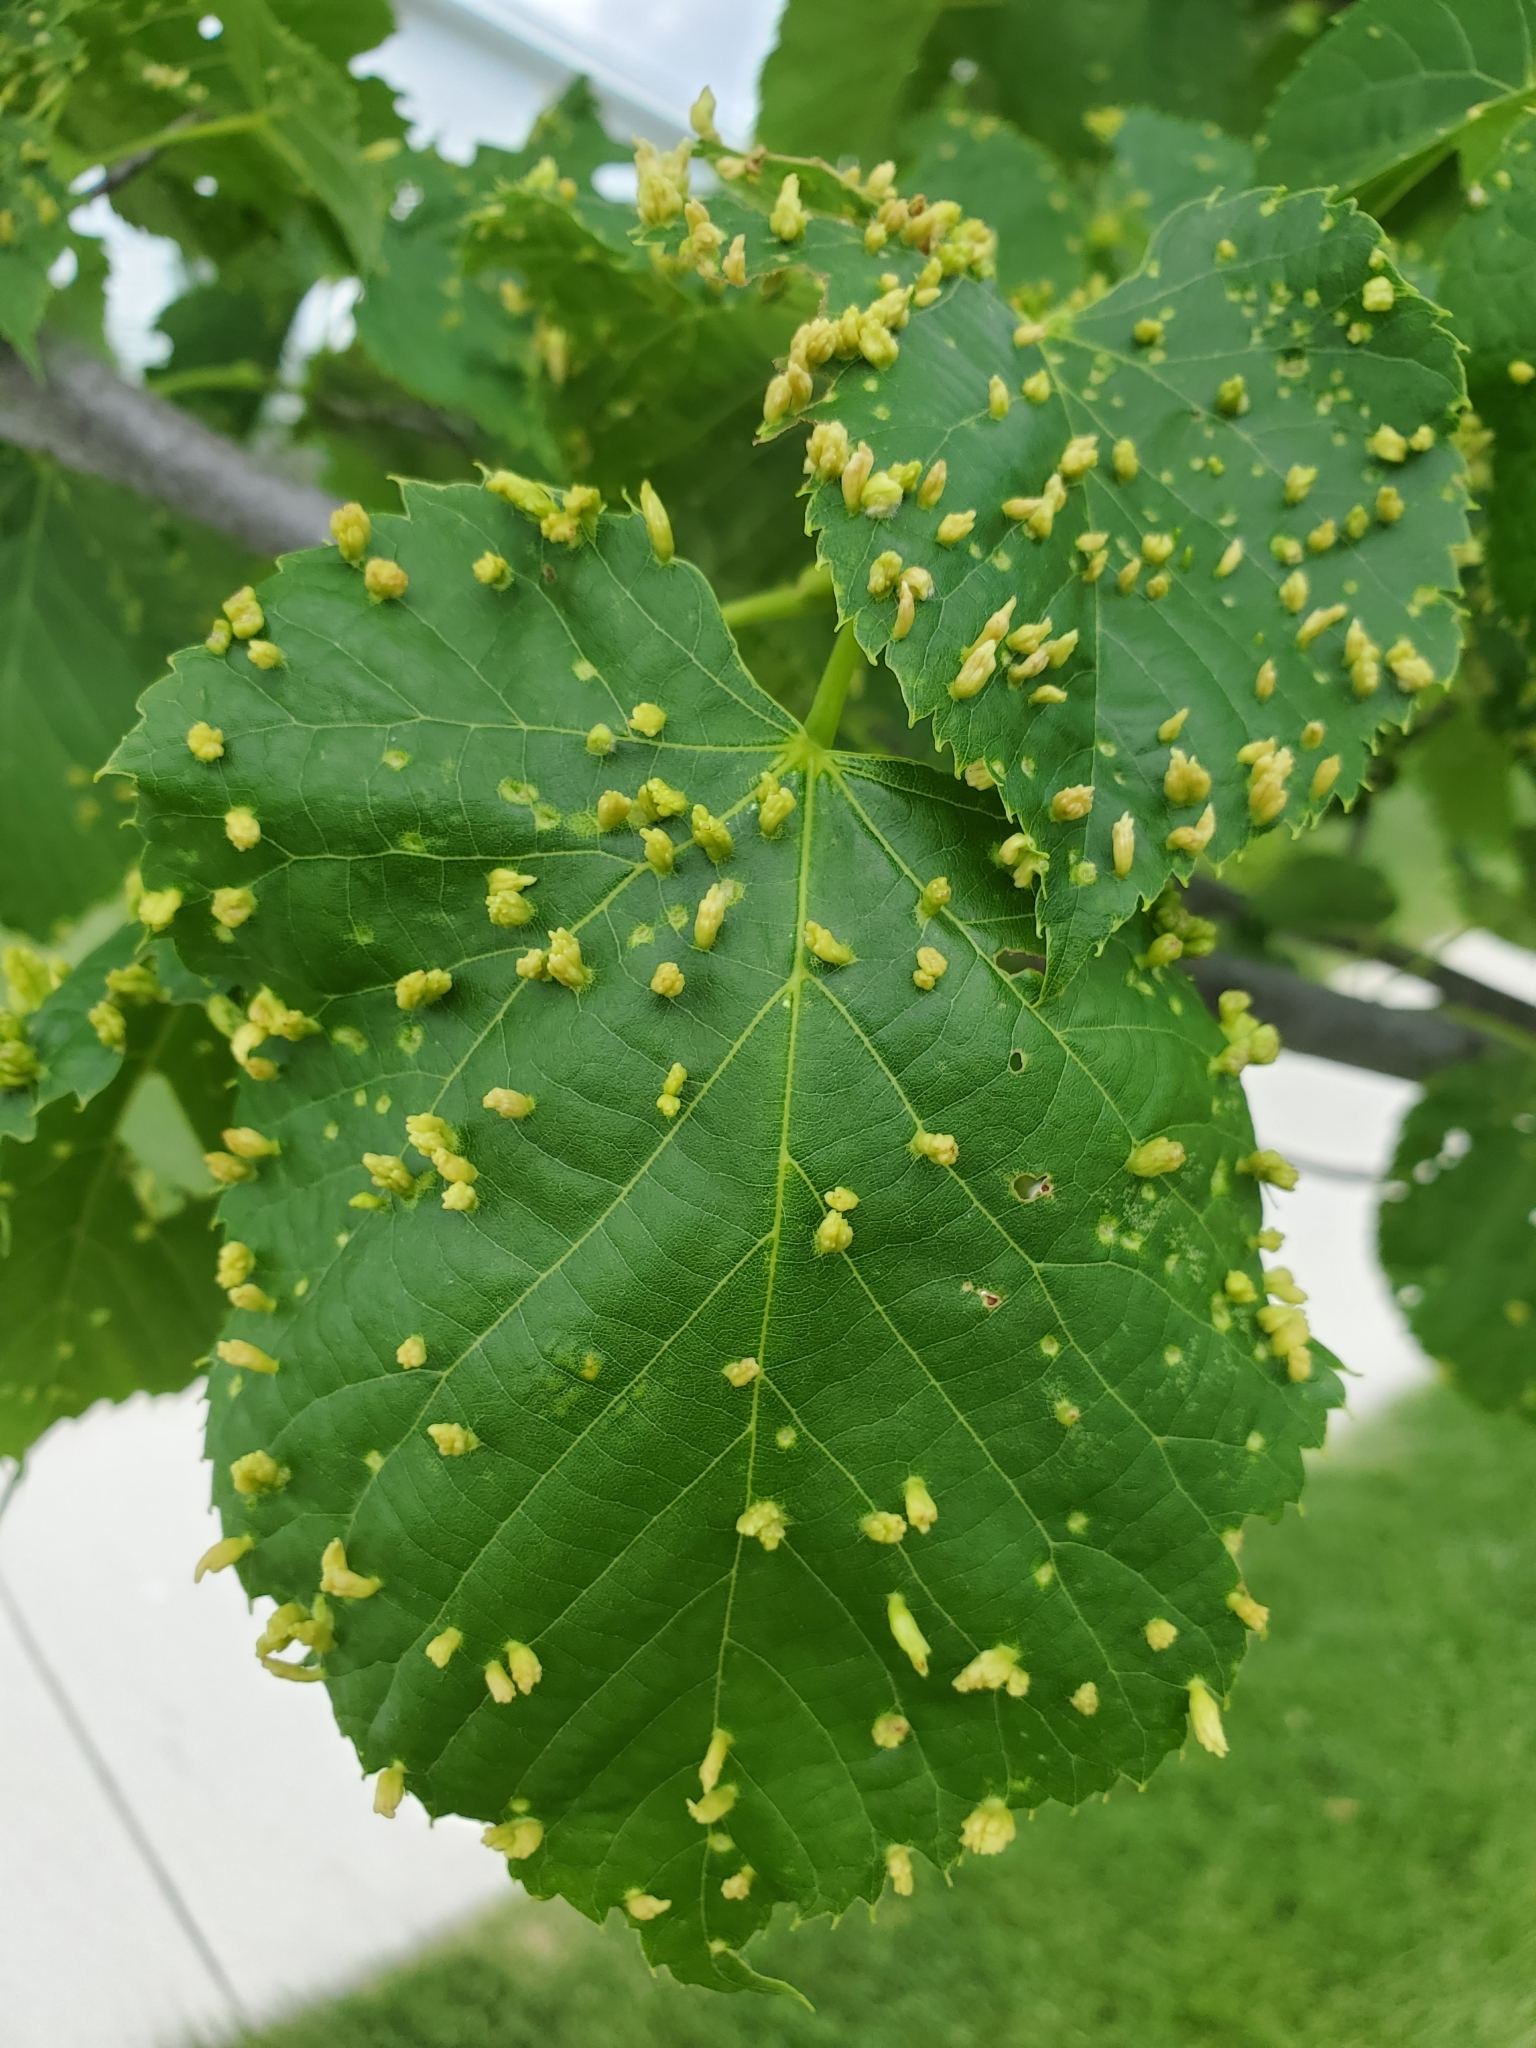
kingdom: Animalia
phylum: Arthropoda
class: Arachnida
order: Trombidiformes
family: Eriophyidae
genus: Eriophyes
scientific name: Eriophyes tiliae
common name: Red nail gall mite
